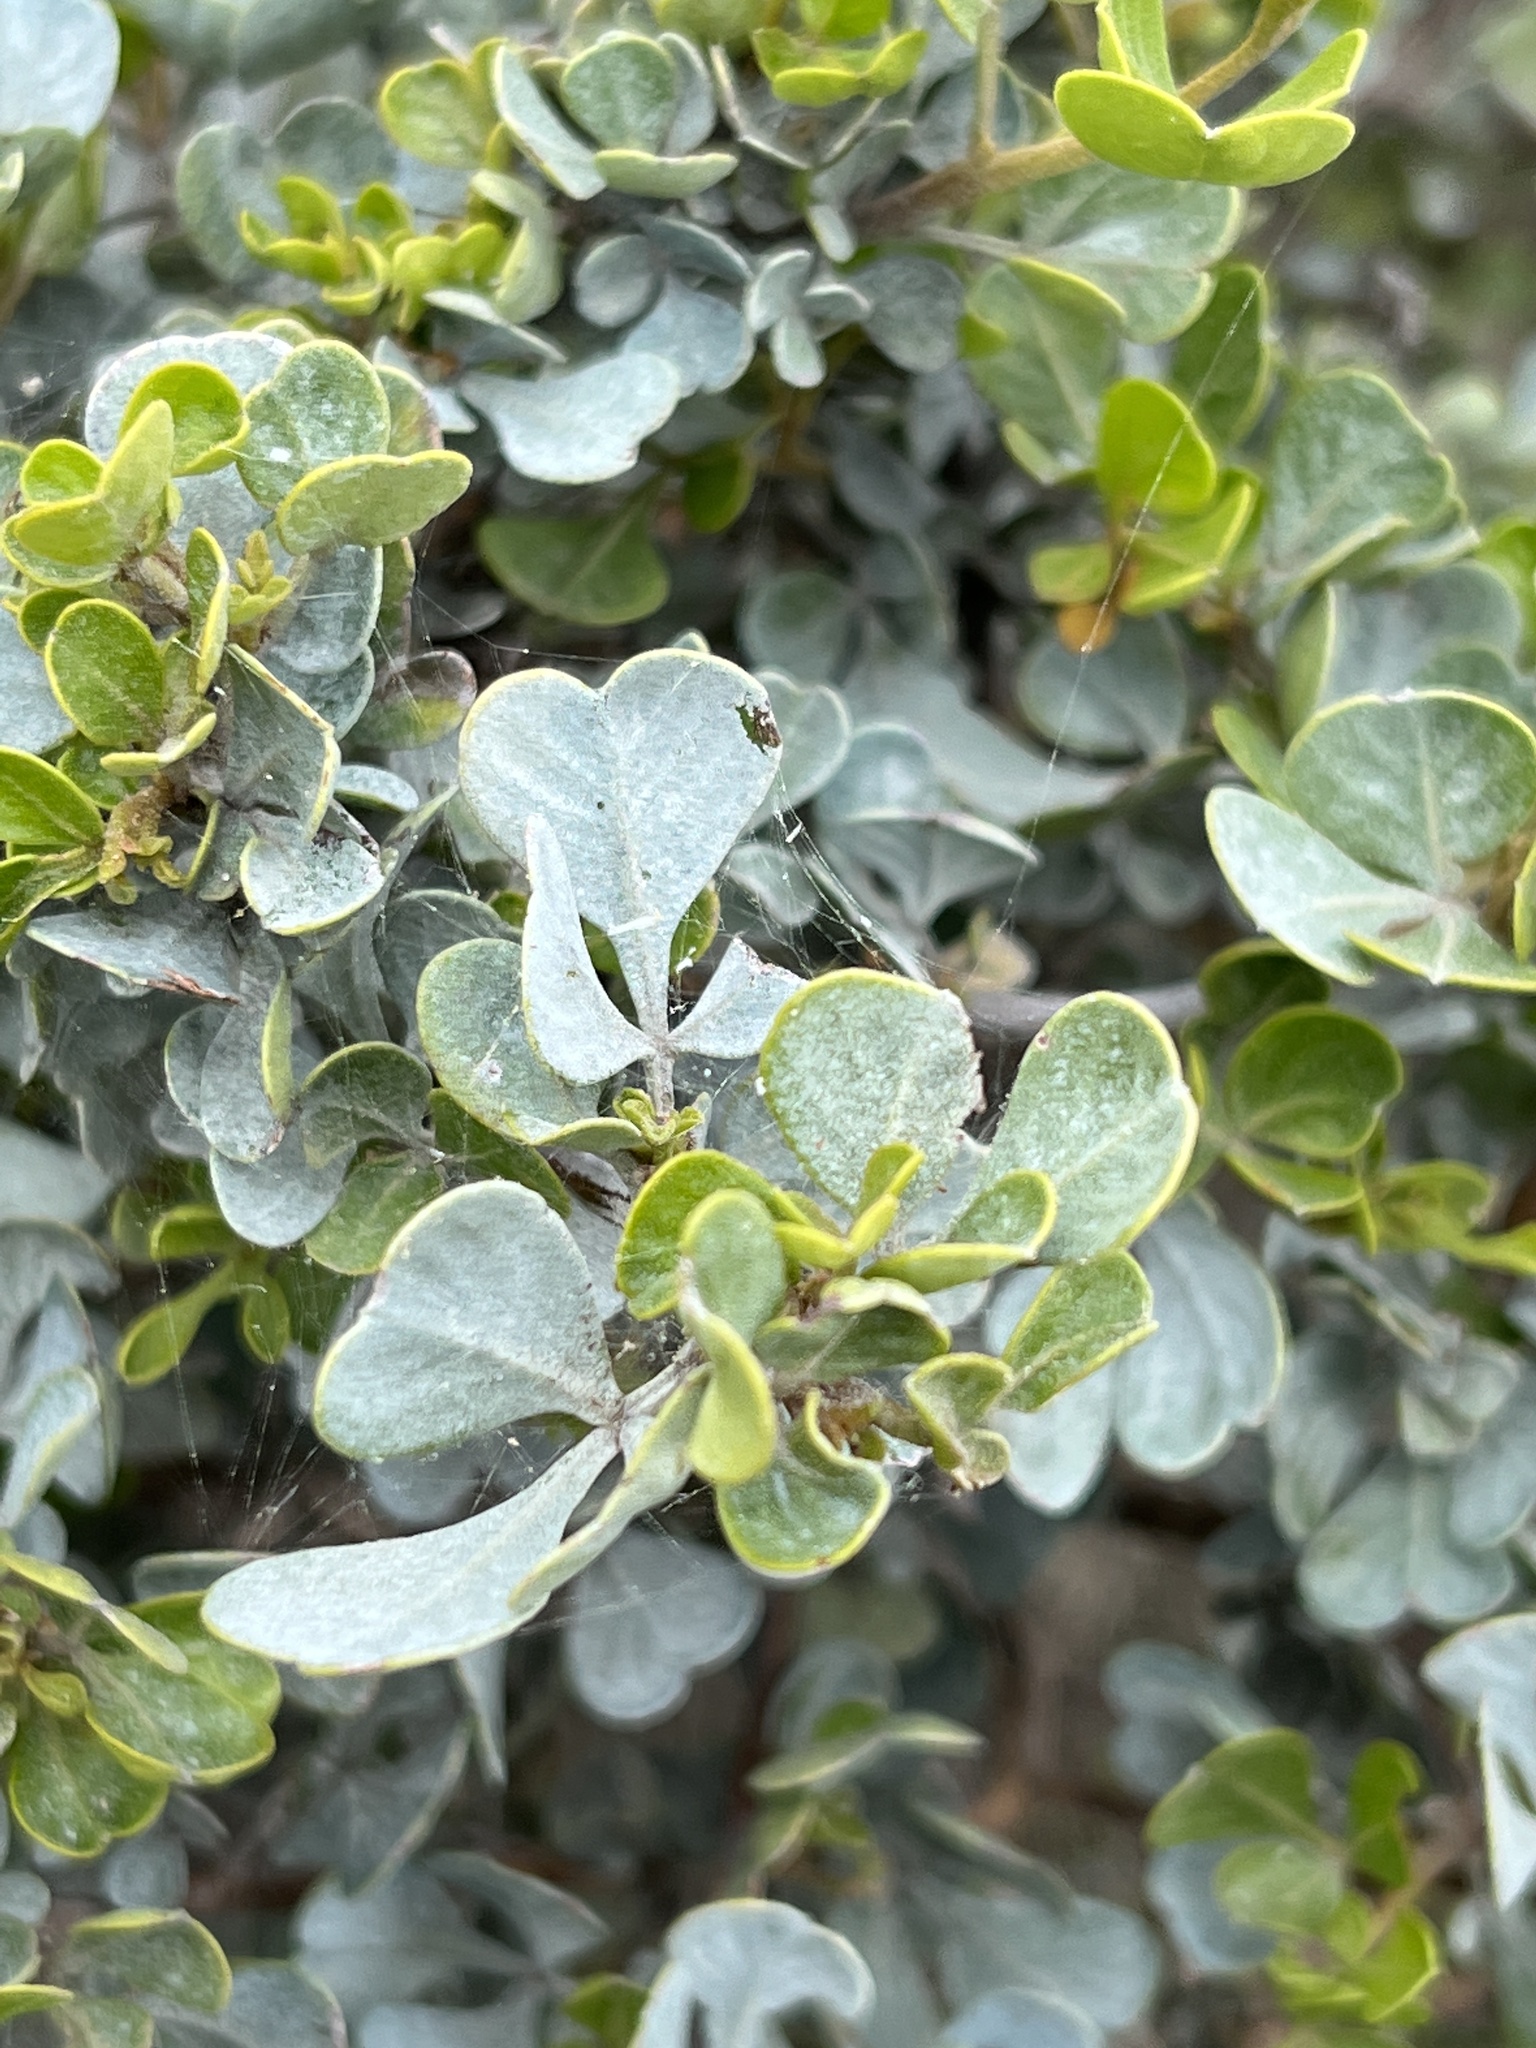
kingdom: Plantae
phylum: Tracheophyta
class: Magnoliopsida
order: Sapindales
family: Anacardiaceae
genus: Searsia
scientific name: Searsia glauca
